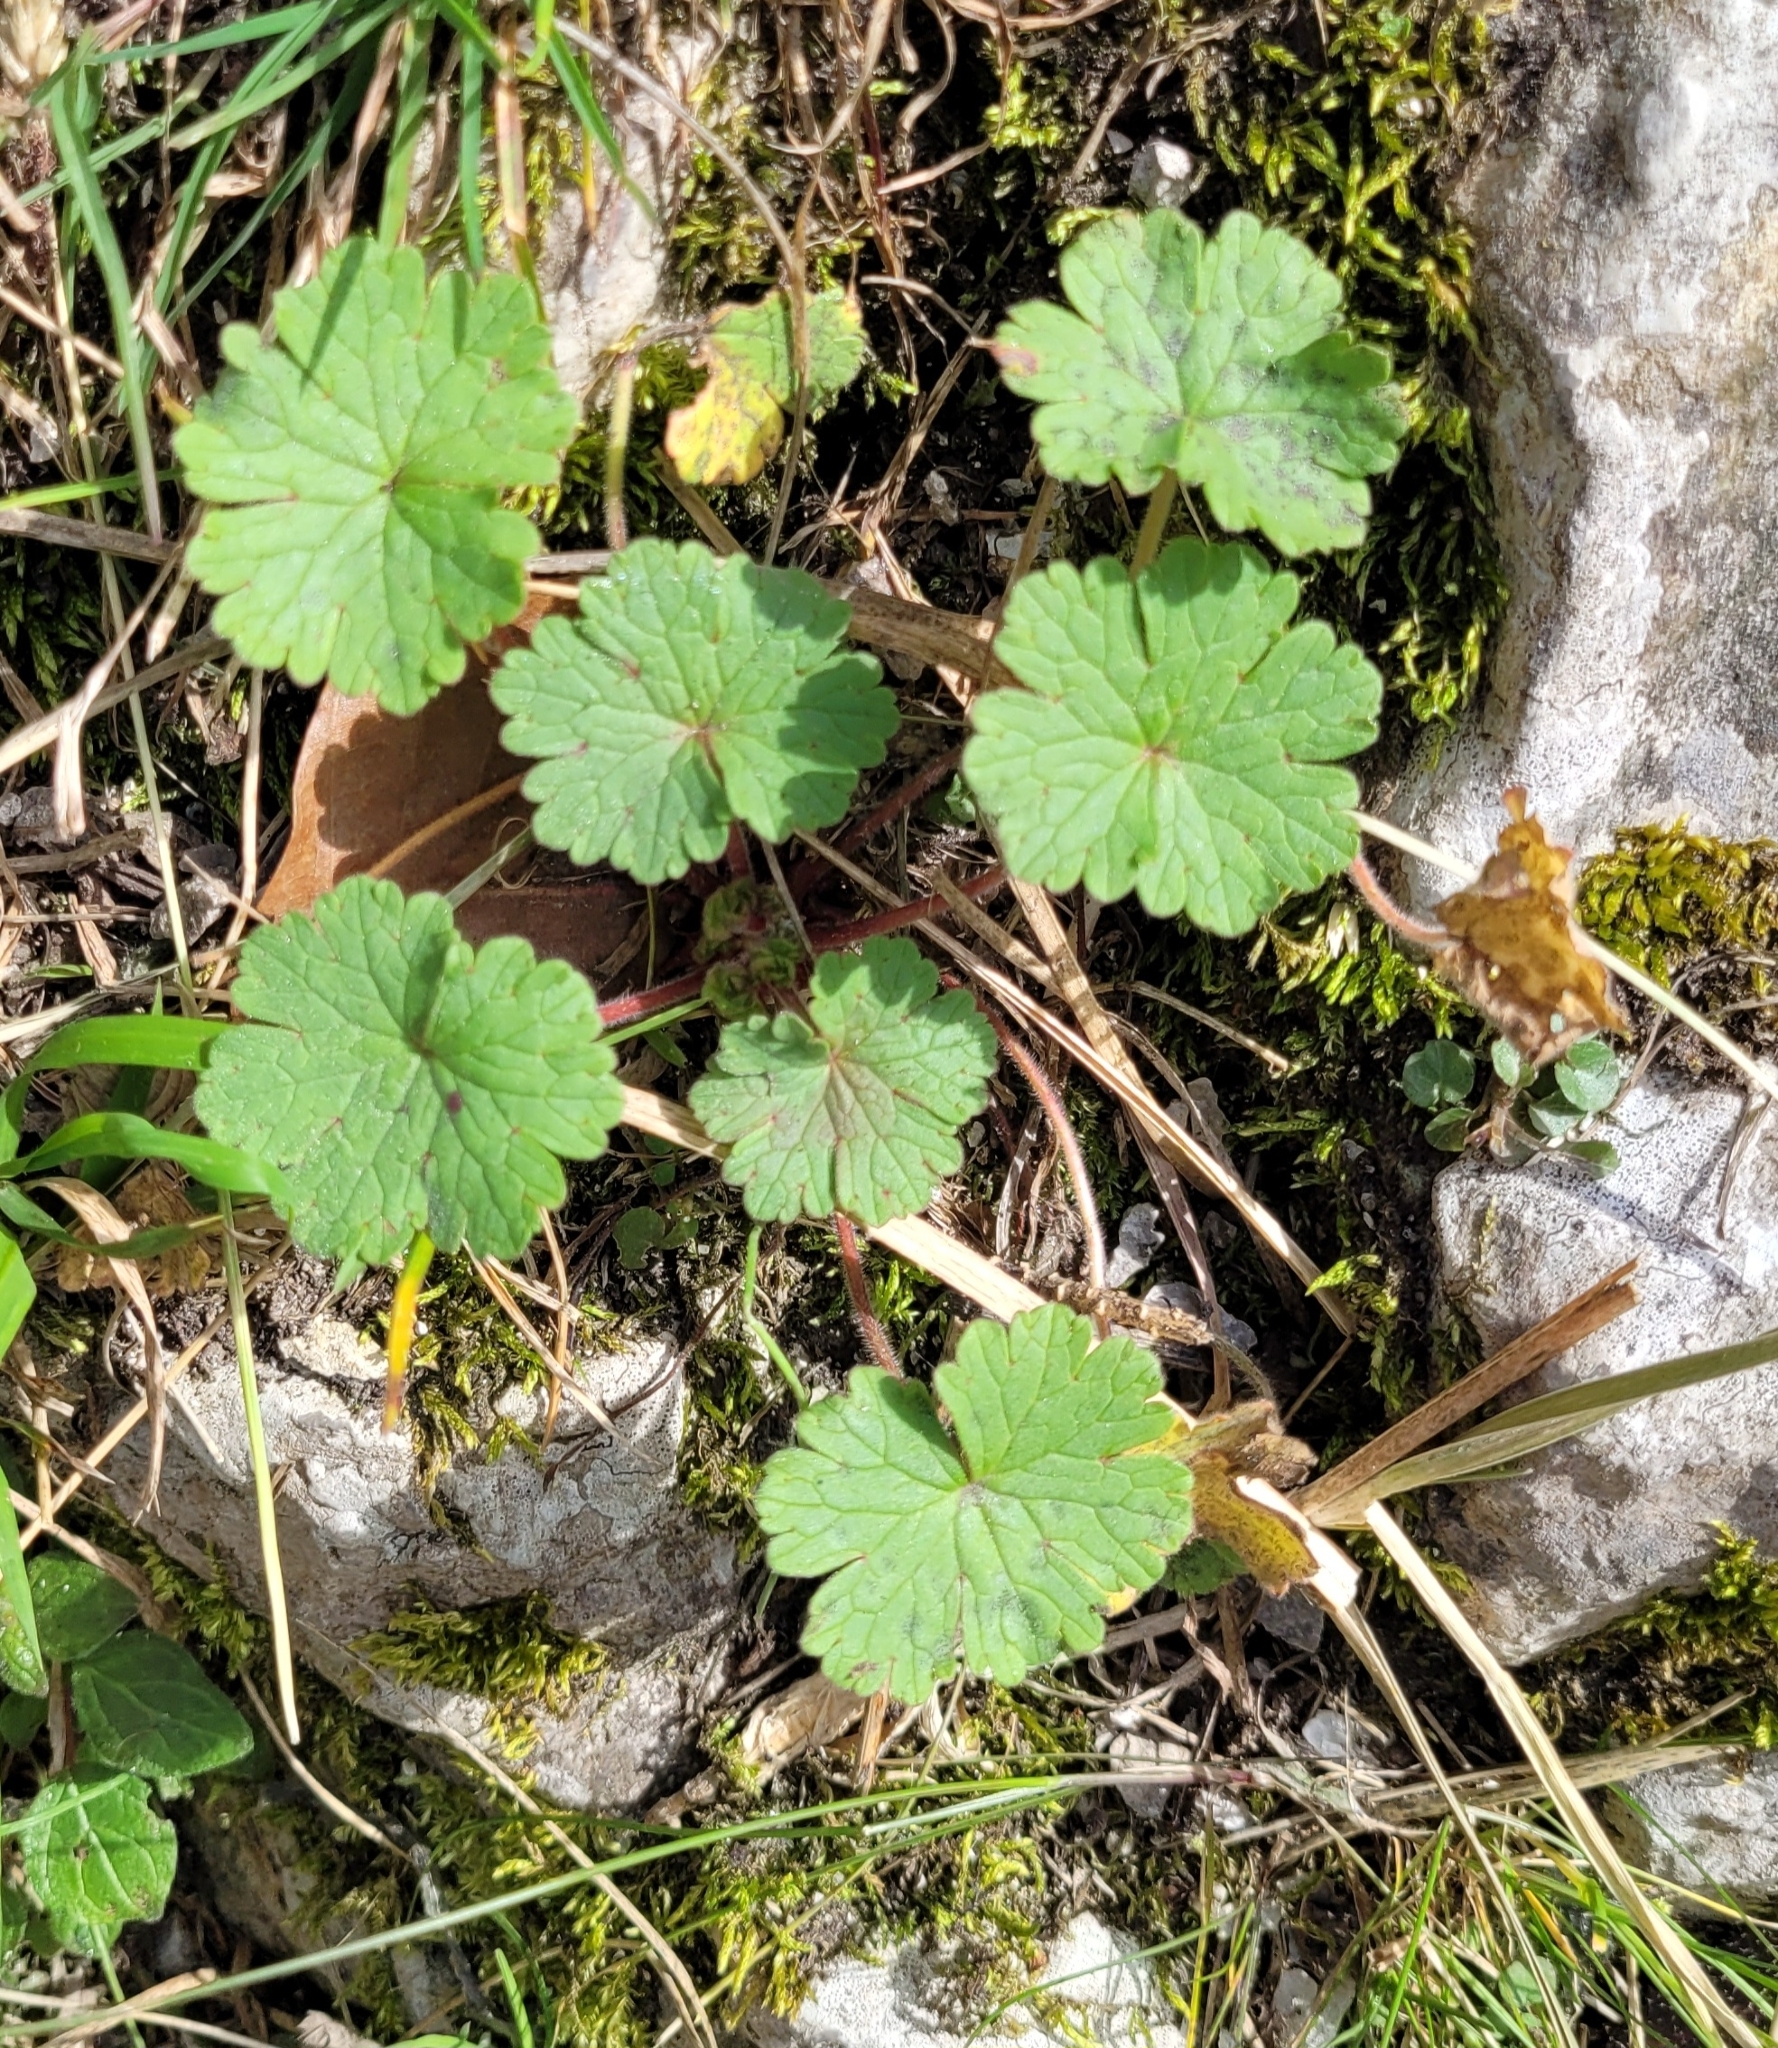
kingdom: Plantae
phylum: Tracheophyta
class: Magnoliopsida
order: Geraniales
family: Geraniaceae
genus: Geranium
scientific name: Geranium rotundifolium
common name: Round-leaved crane's-bill
